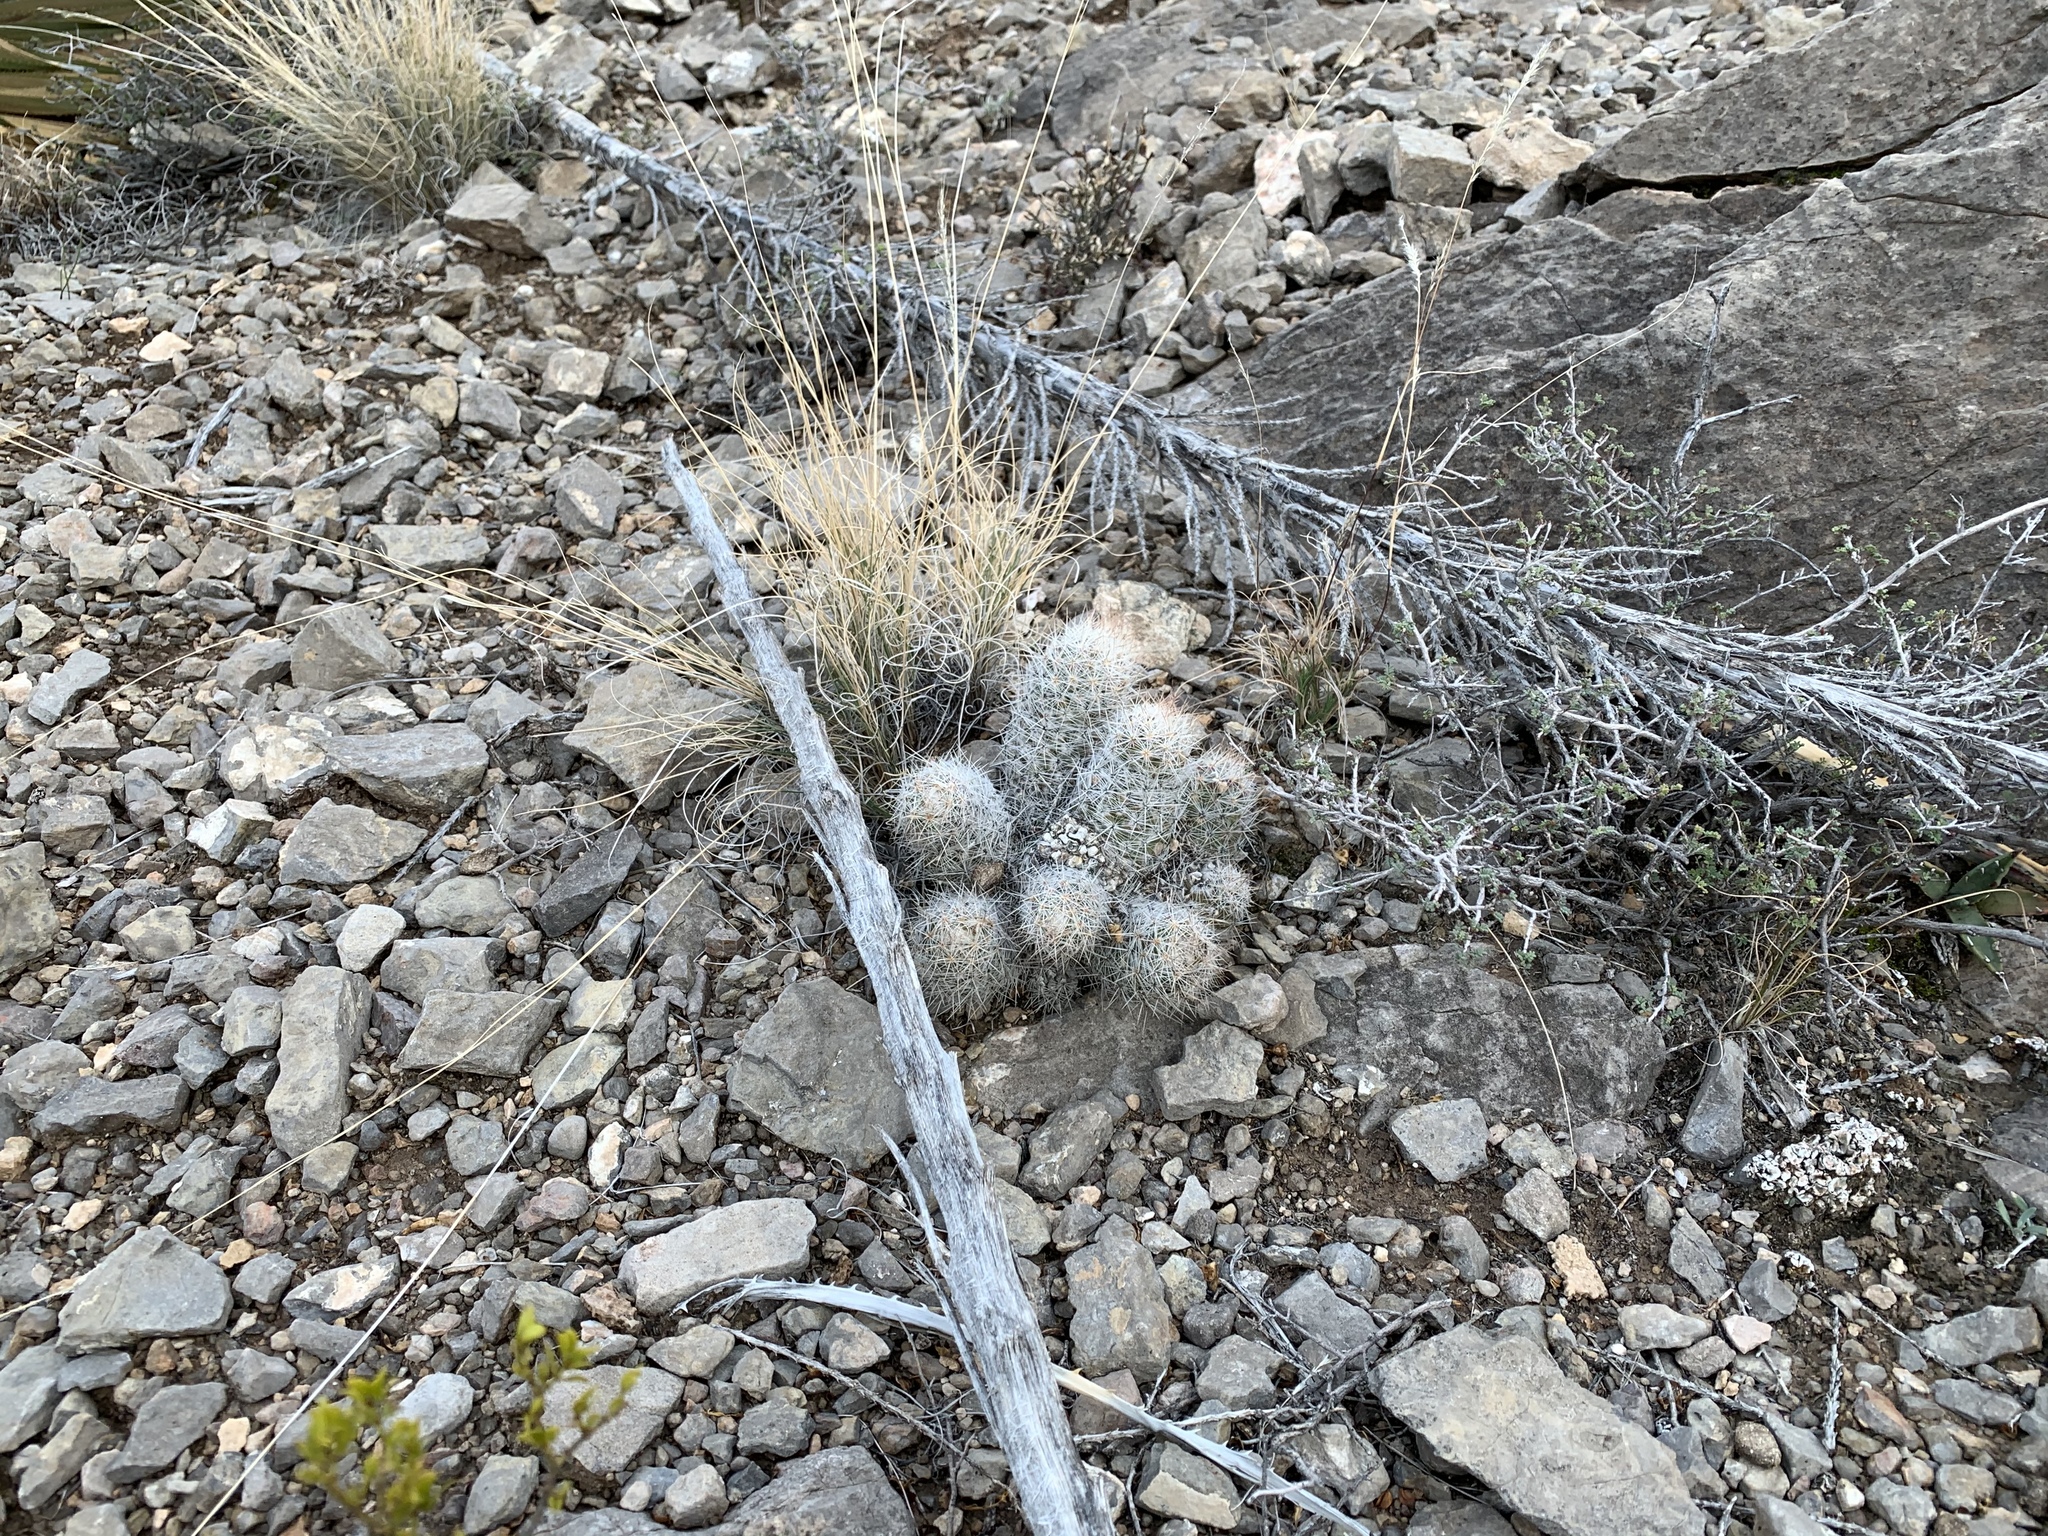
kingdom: Plantae
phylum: Tracheophyta
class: Magnoliopsida
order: Caryophyllales
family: Cactaceae
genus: Pelecyphora
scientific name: Pelecyphora tuberculosa
